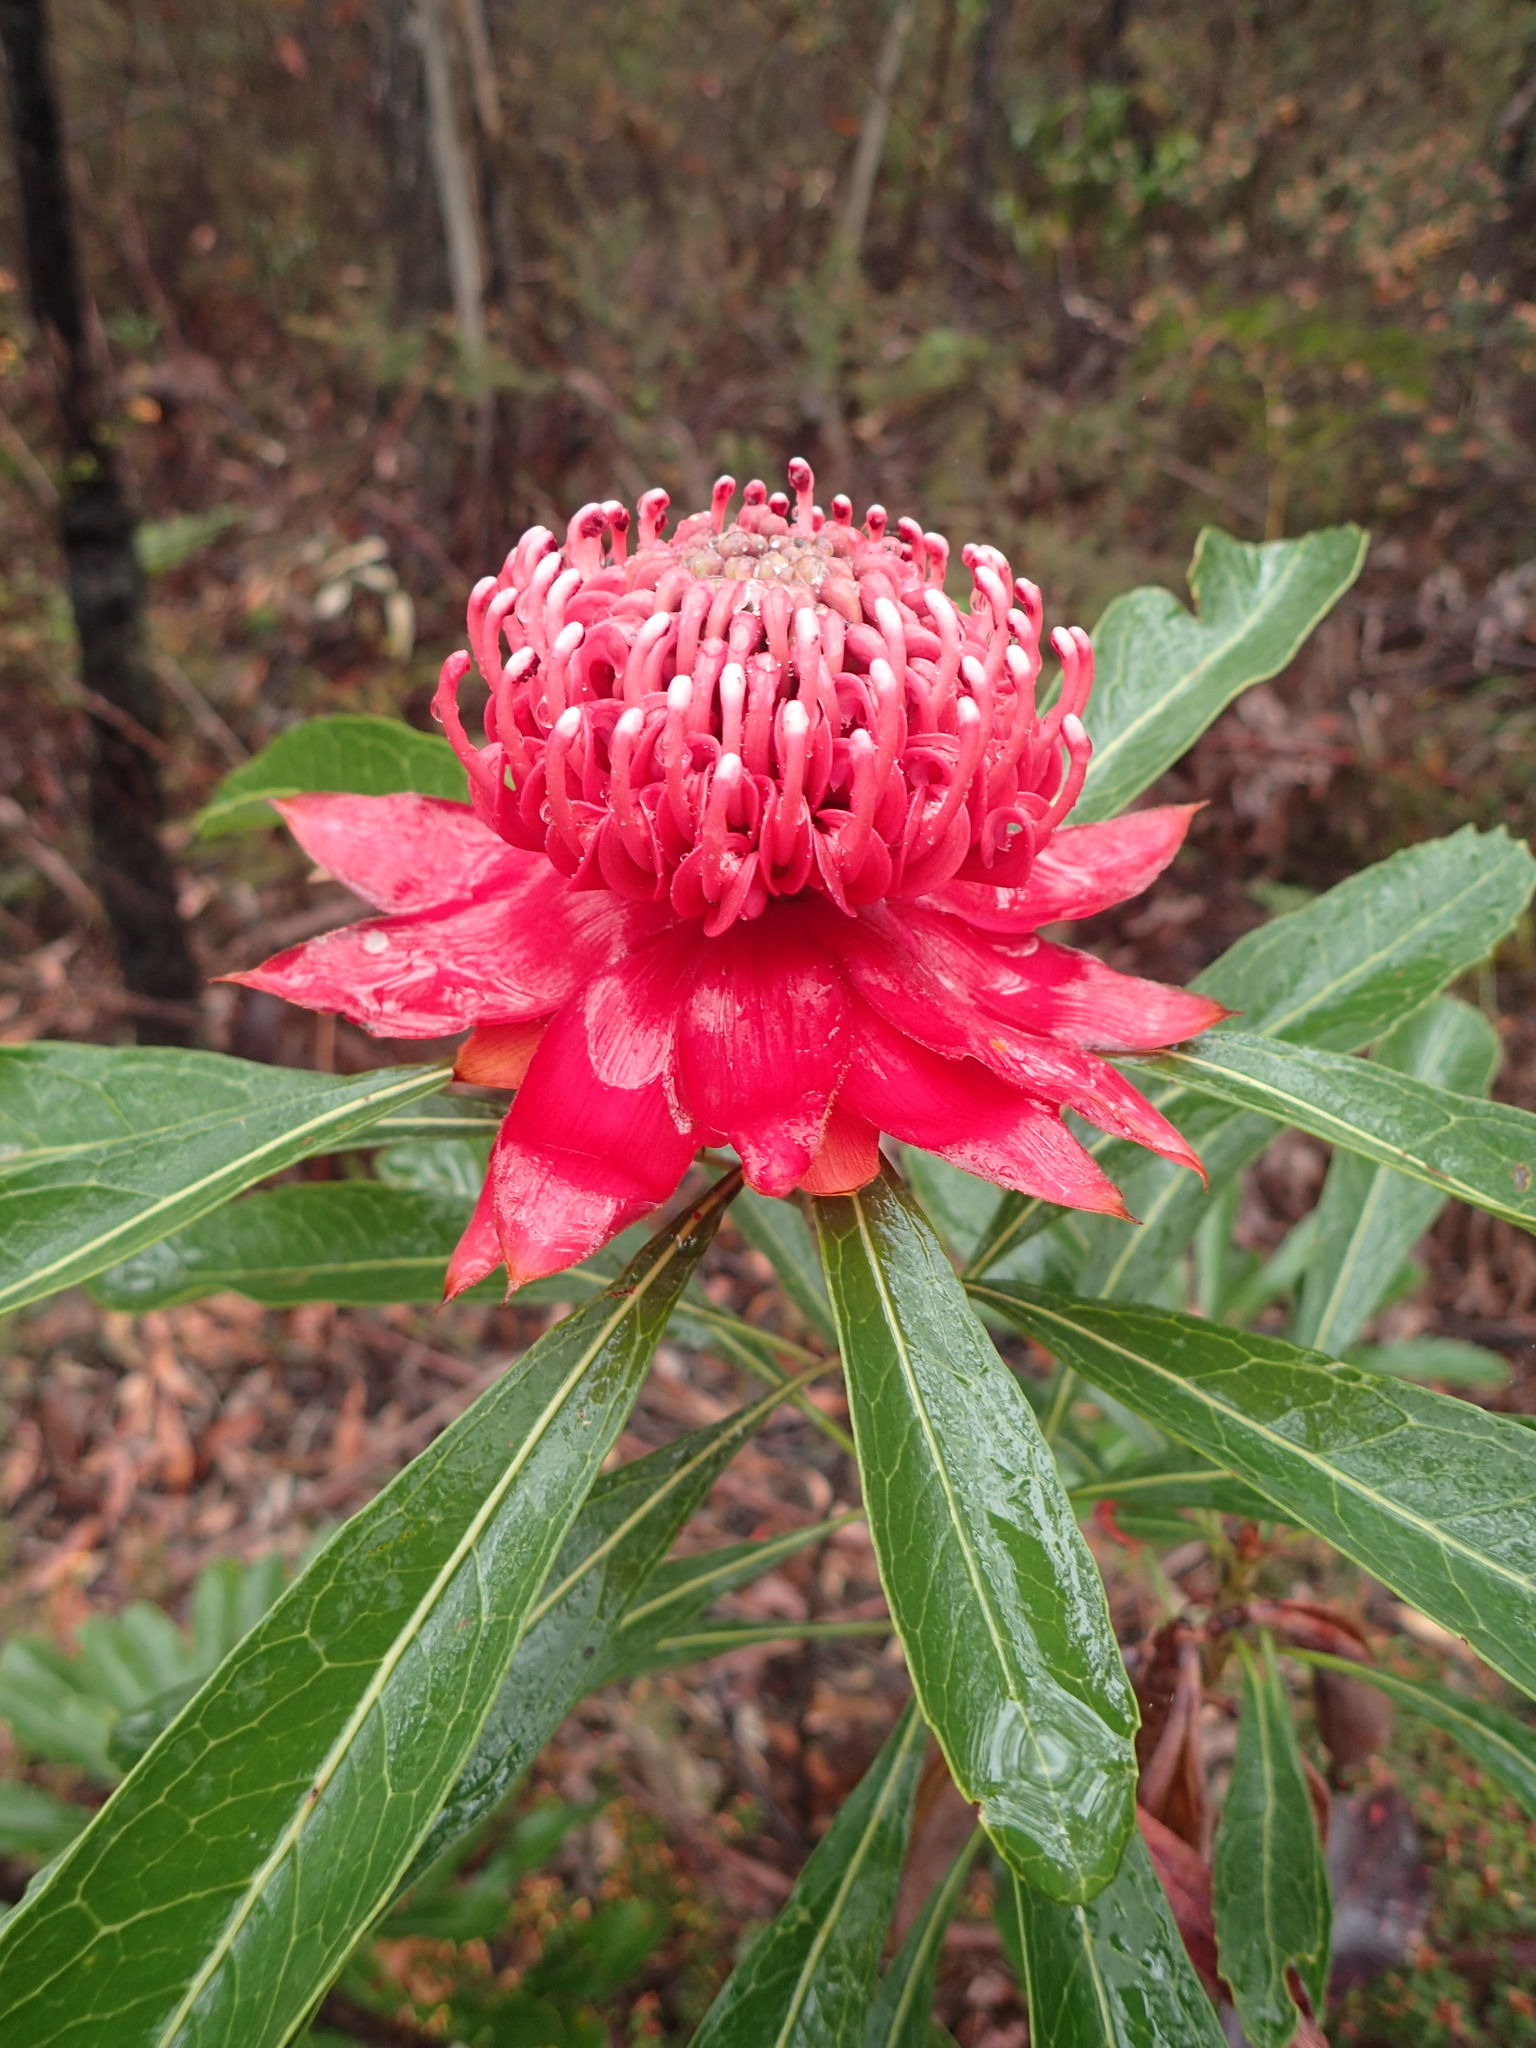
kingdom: Plantae
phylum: Tracheophyta
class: Magnoliopsida
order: Proteales
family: Proteaceae
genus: Telopea
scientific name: Telopea speciosissima
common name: New south wales waratah
